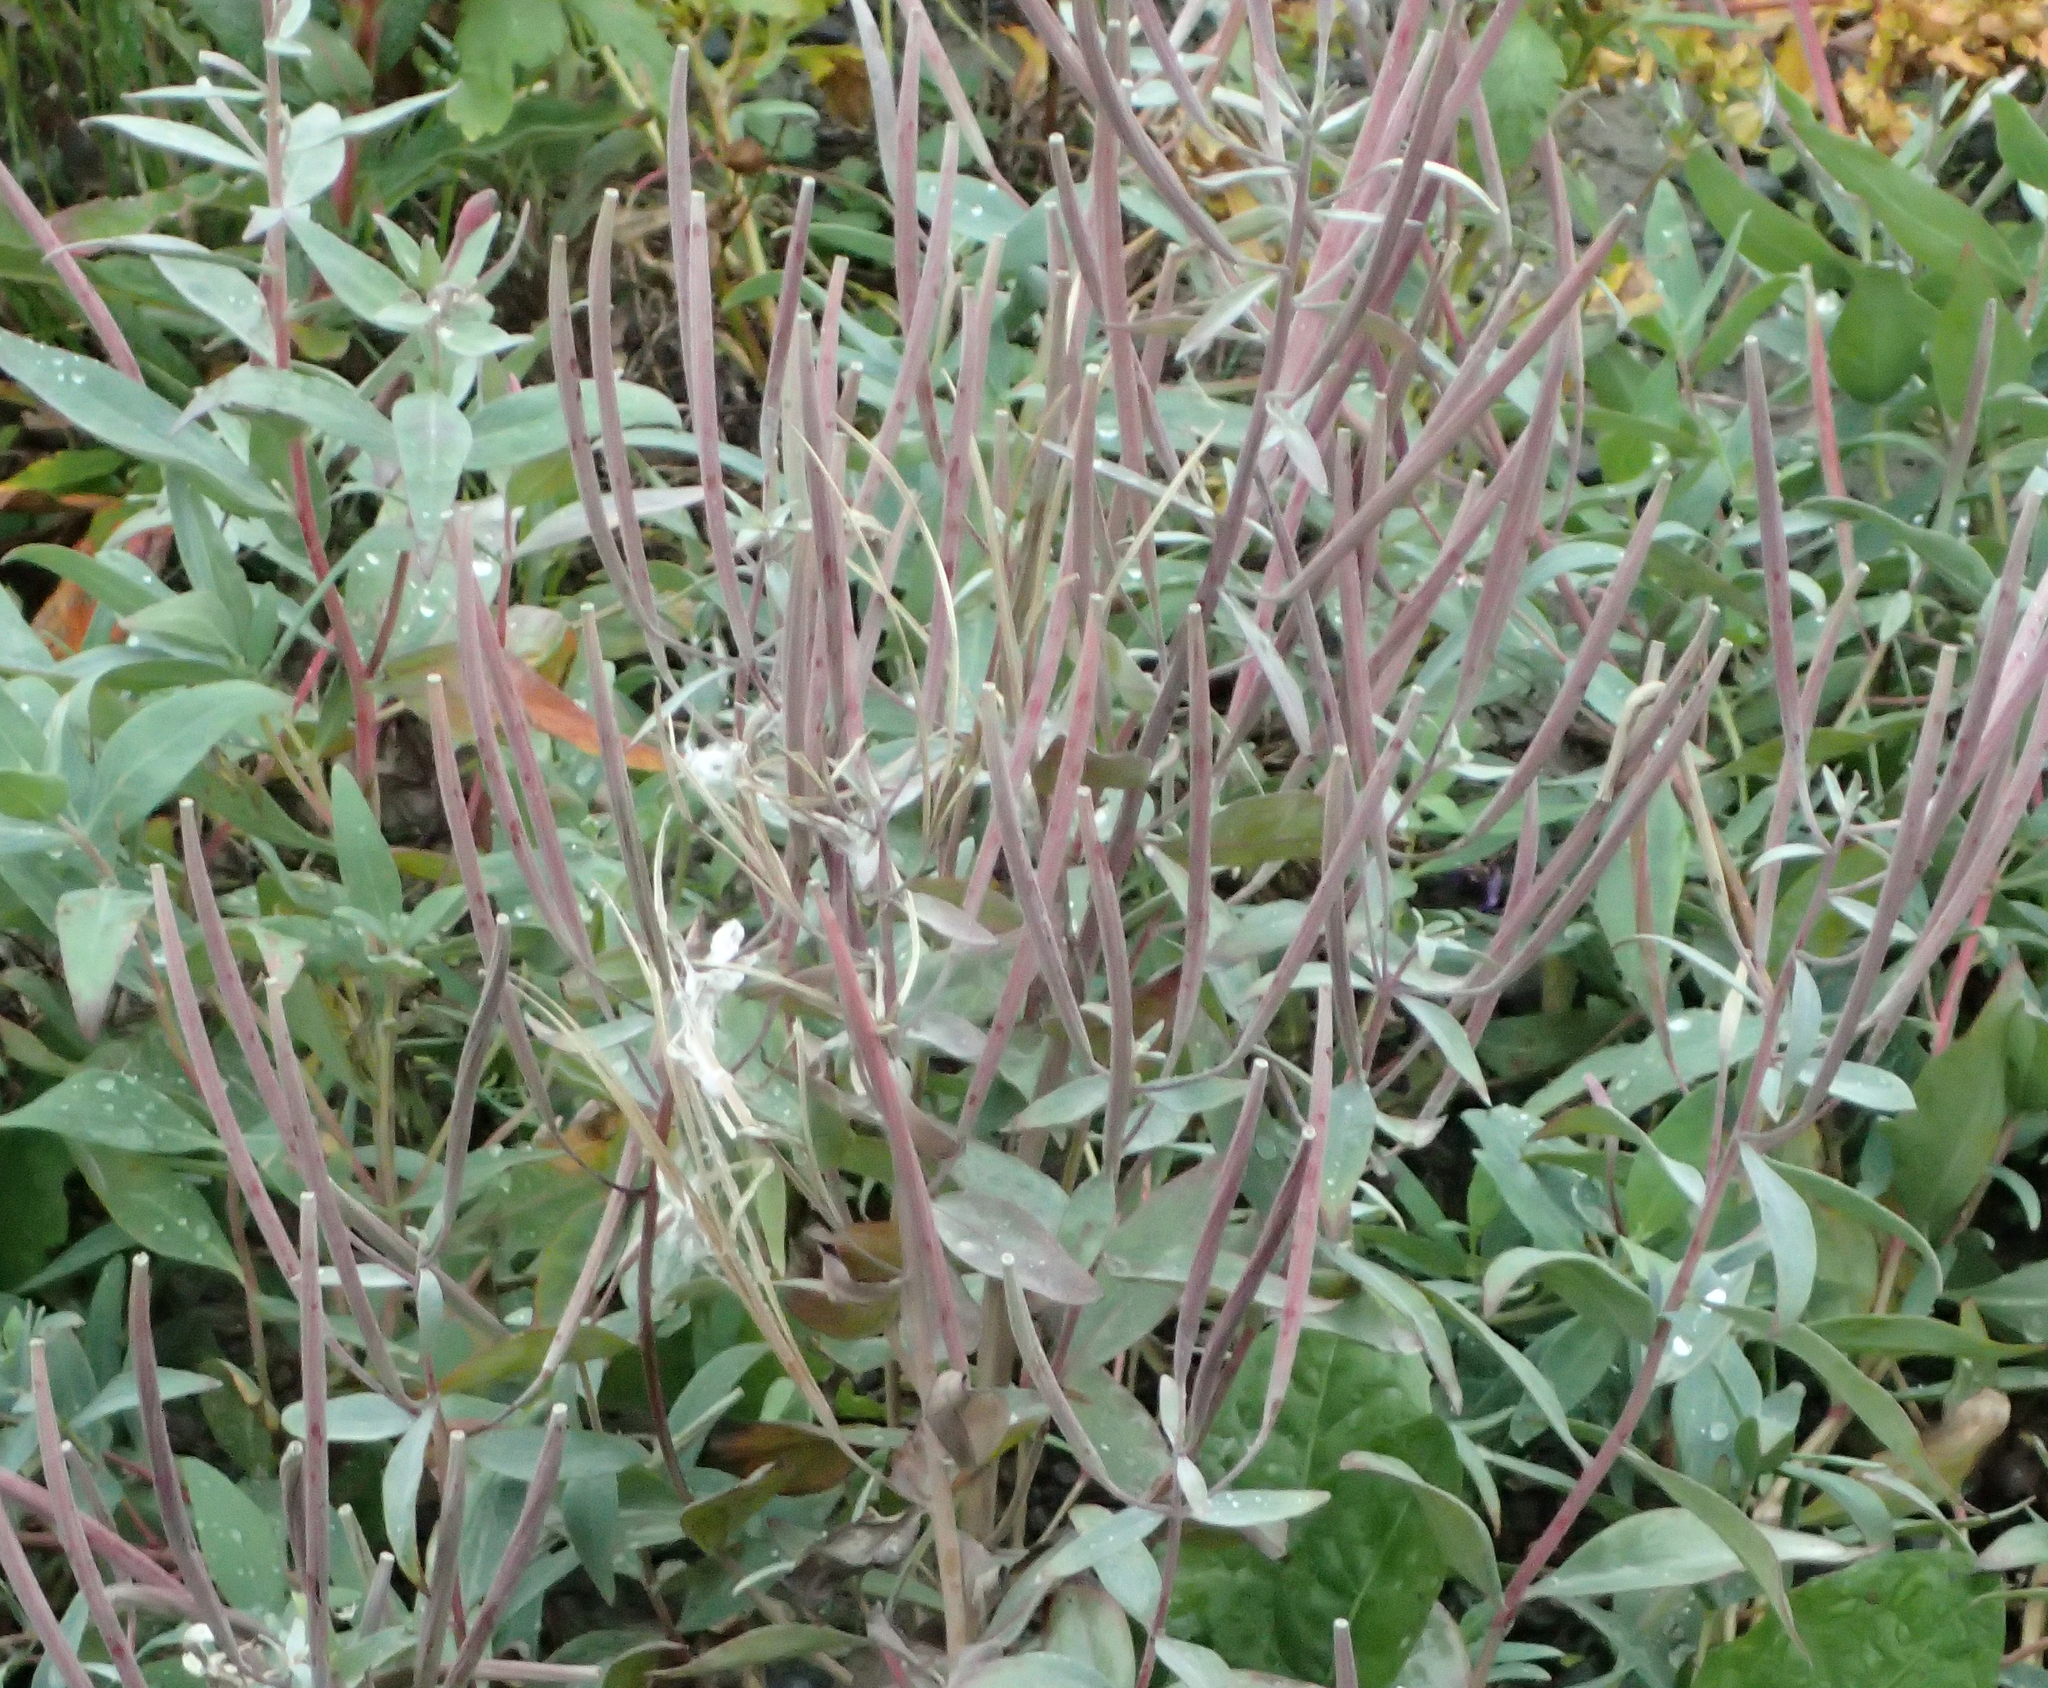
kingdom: Plantae
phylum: Tracheophyta
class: Magnoliopsida
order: Myrtales
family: Onagraceae
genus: Chamaenerion
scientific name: Chamaenerion latifolium
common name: Dwarf fireweed
